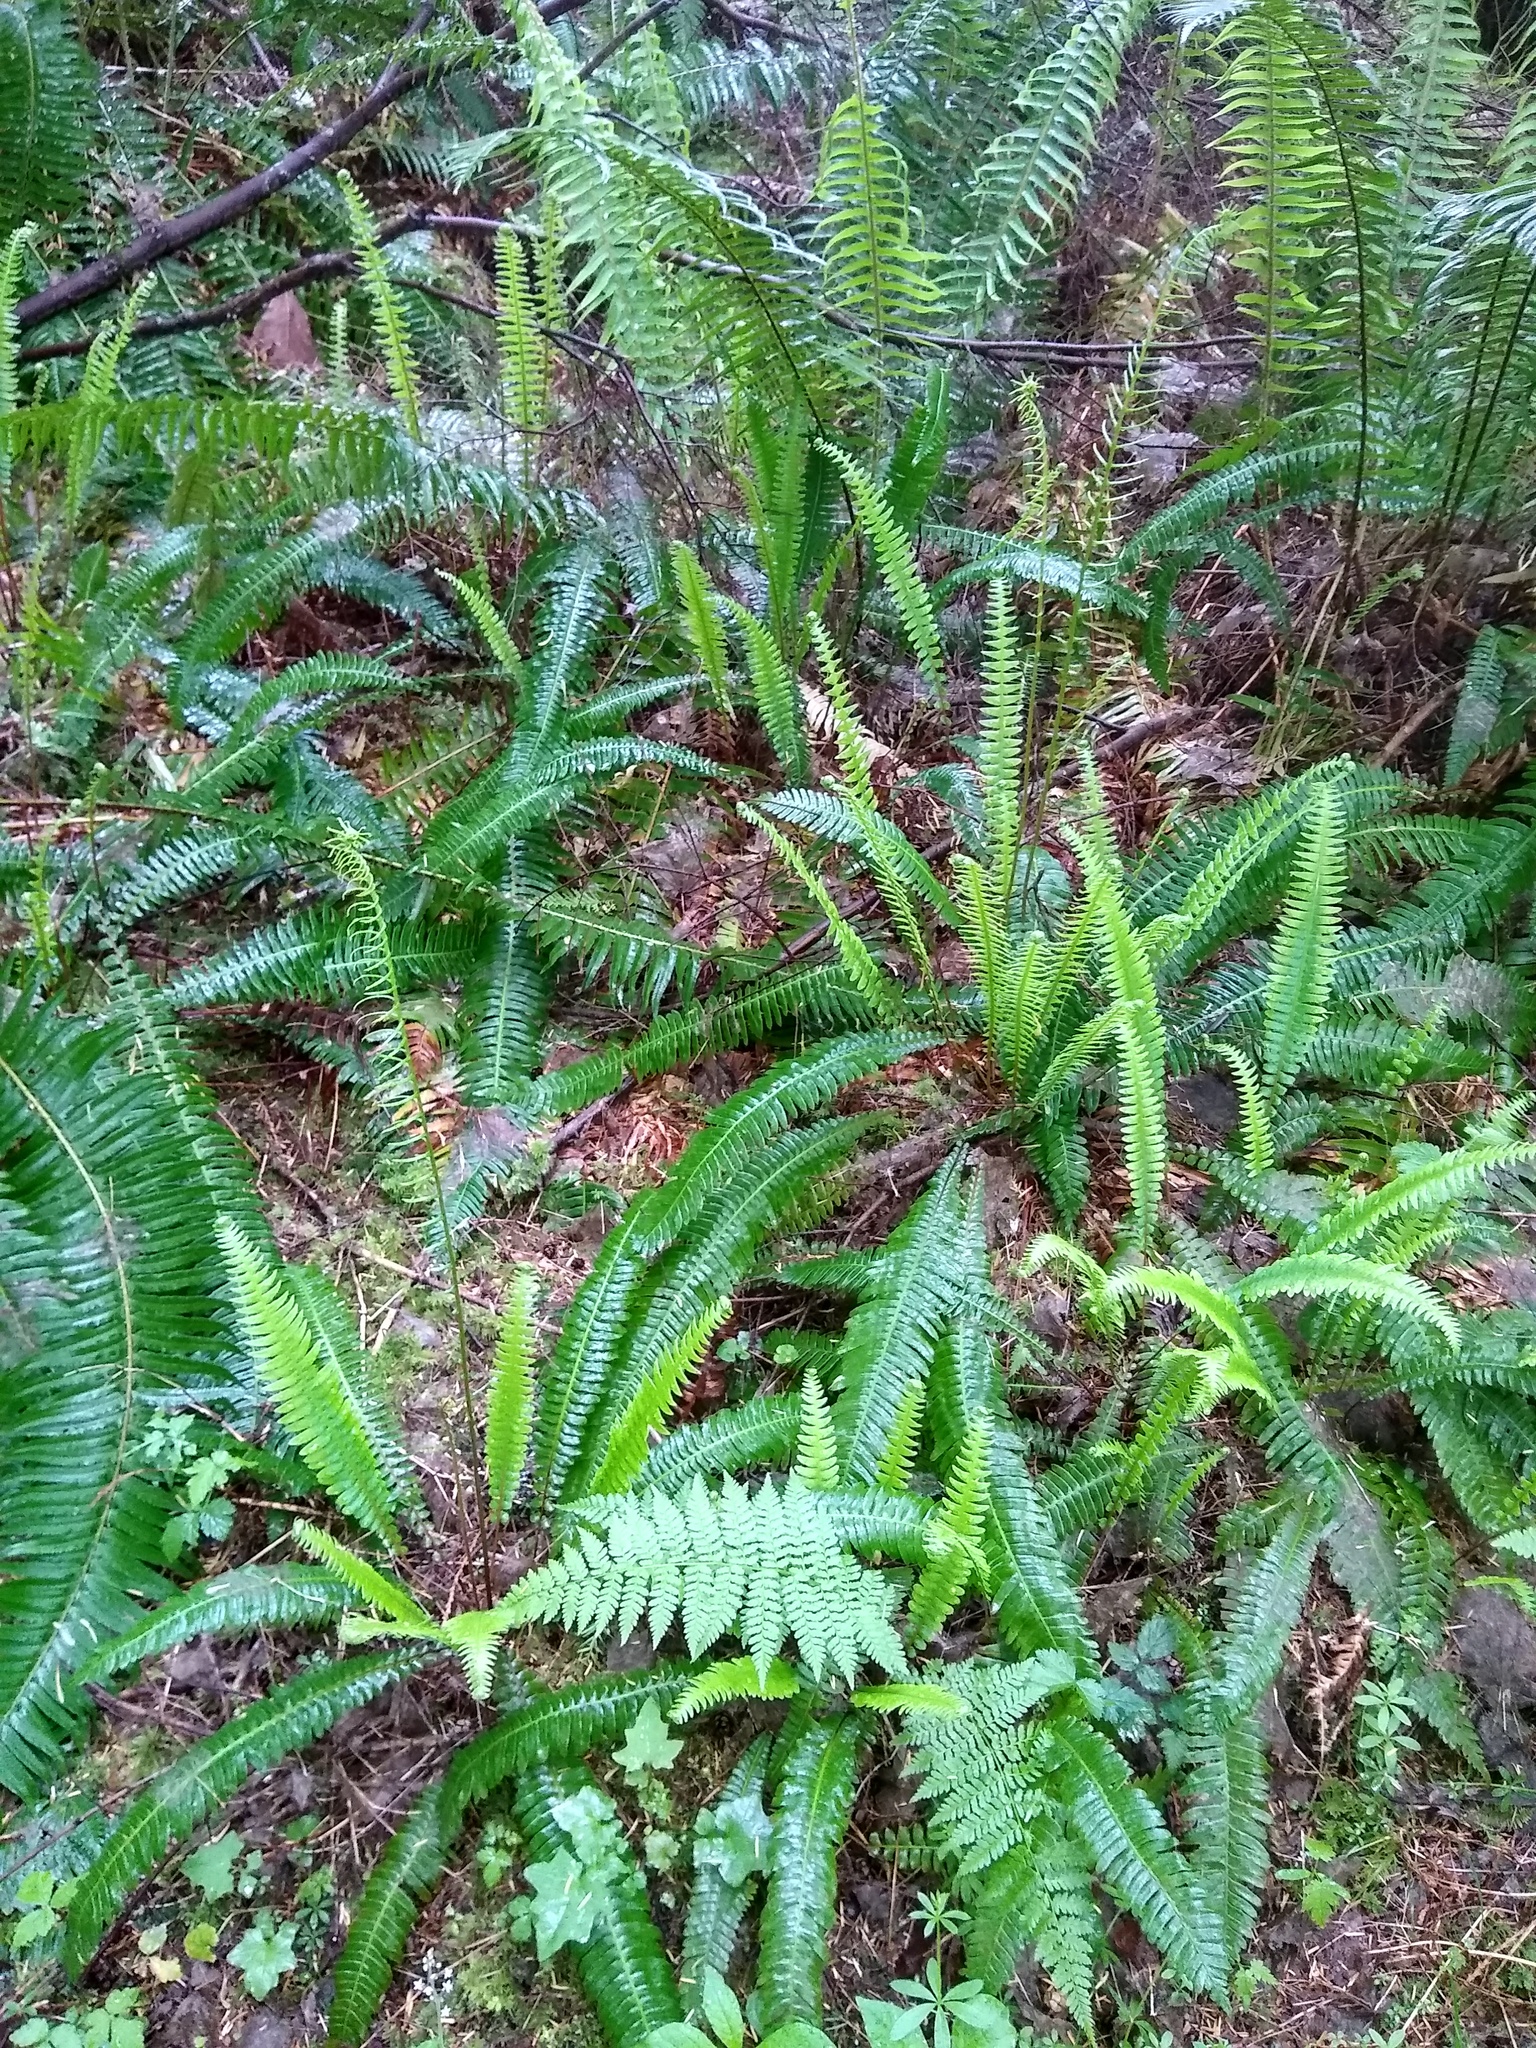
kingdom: Plantae
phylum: Tracheophyta
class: Polypodiopsida
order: Polypodiales
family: Blechnaceae
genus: Struthiopteris
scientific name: Struthiopteris spicant
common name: Deer fern
